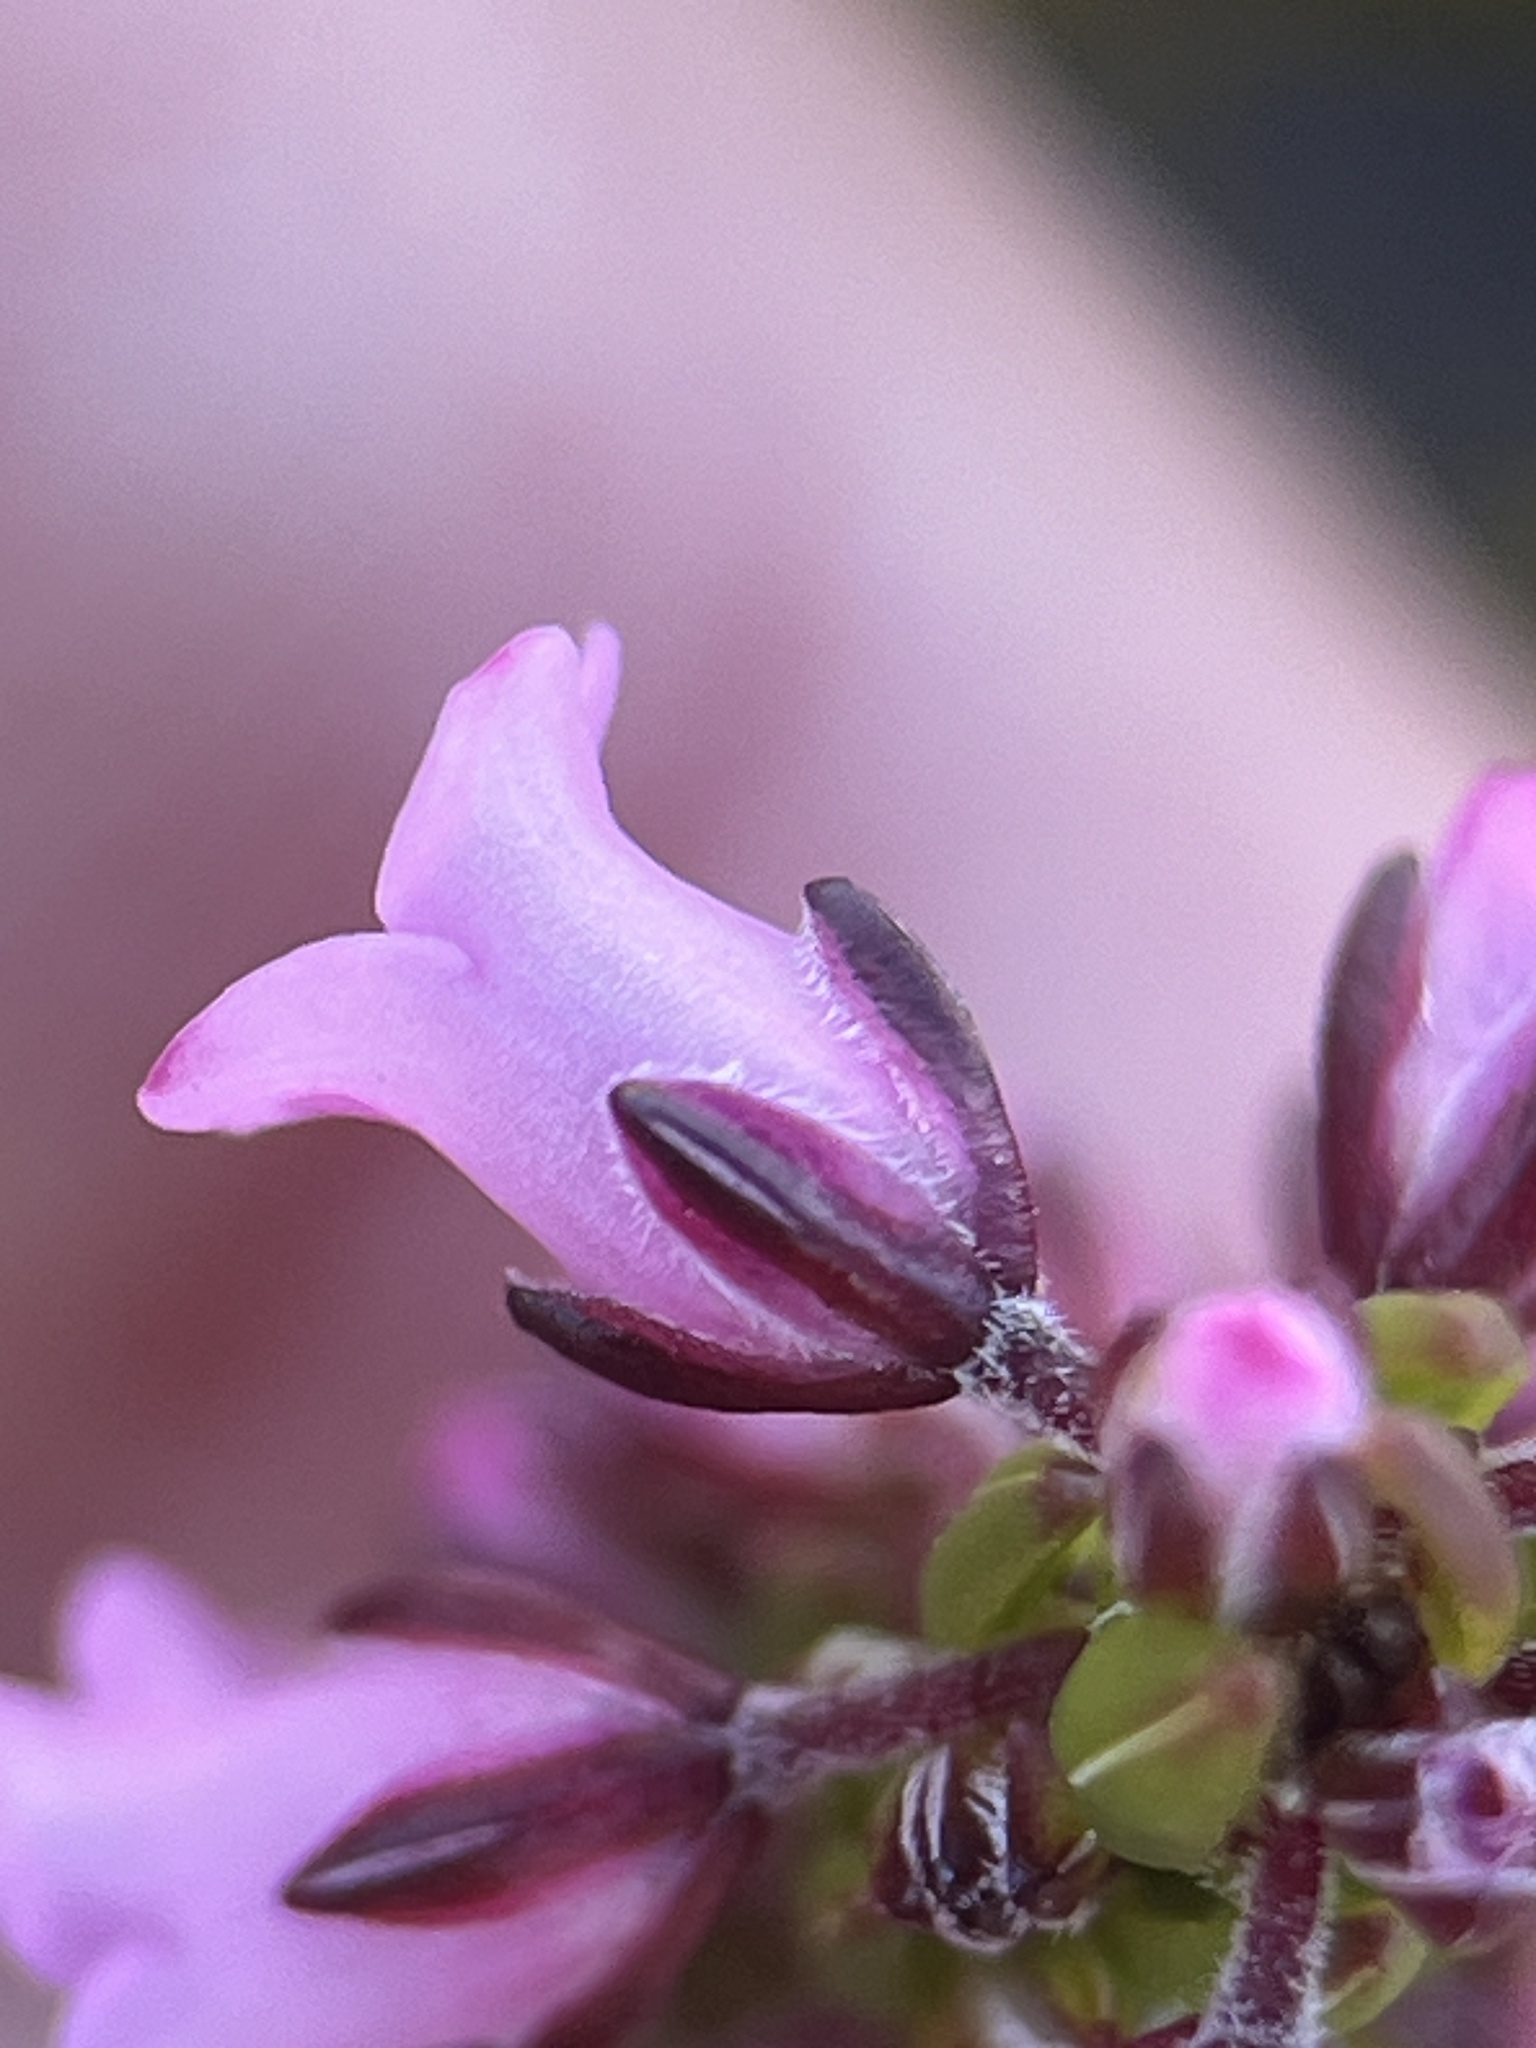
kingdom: Plantae
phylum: Tracheophyta
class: Magnoliopsida
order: Ericales
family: Ericaceae
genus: Erica
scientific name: Erica longiaristata
